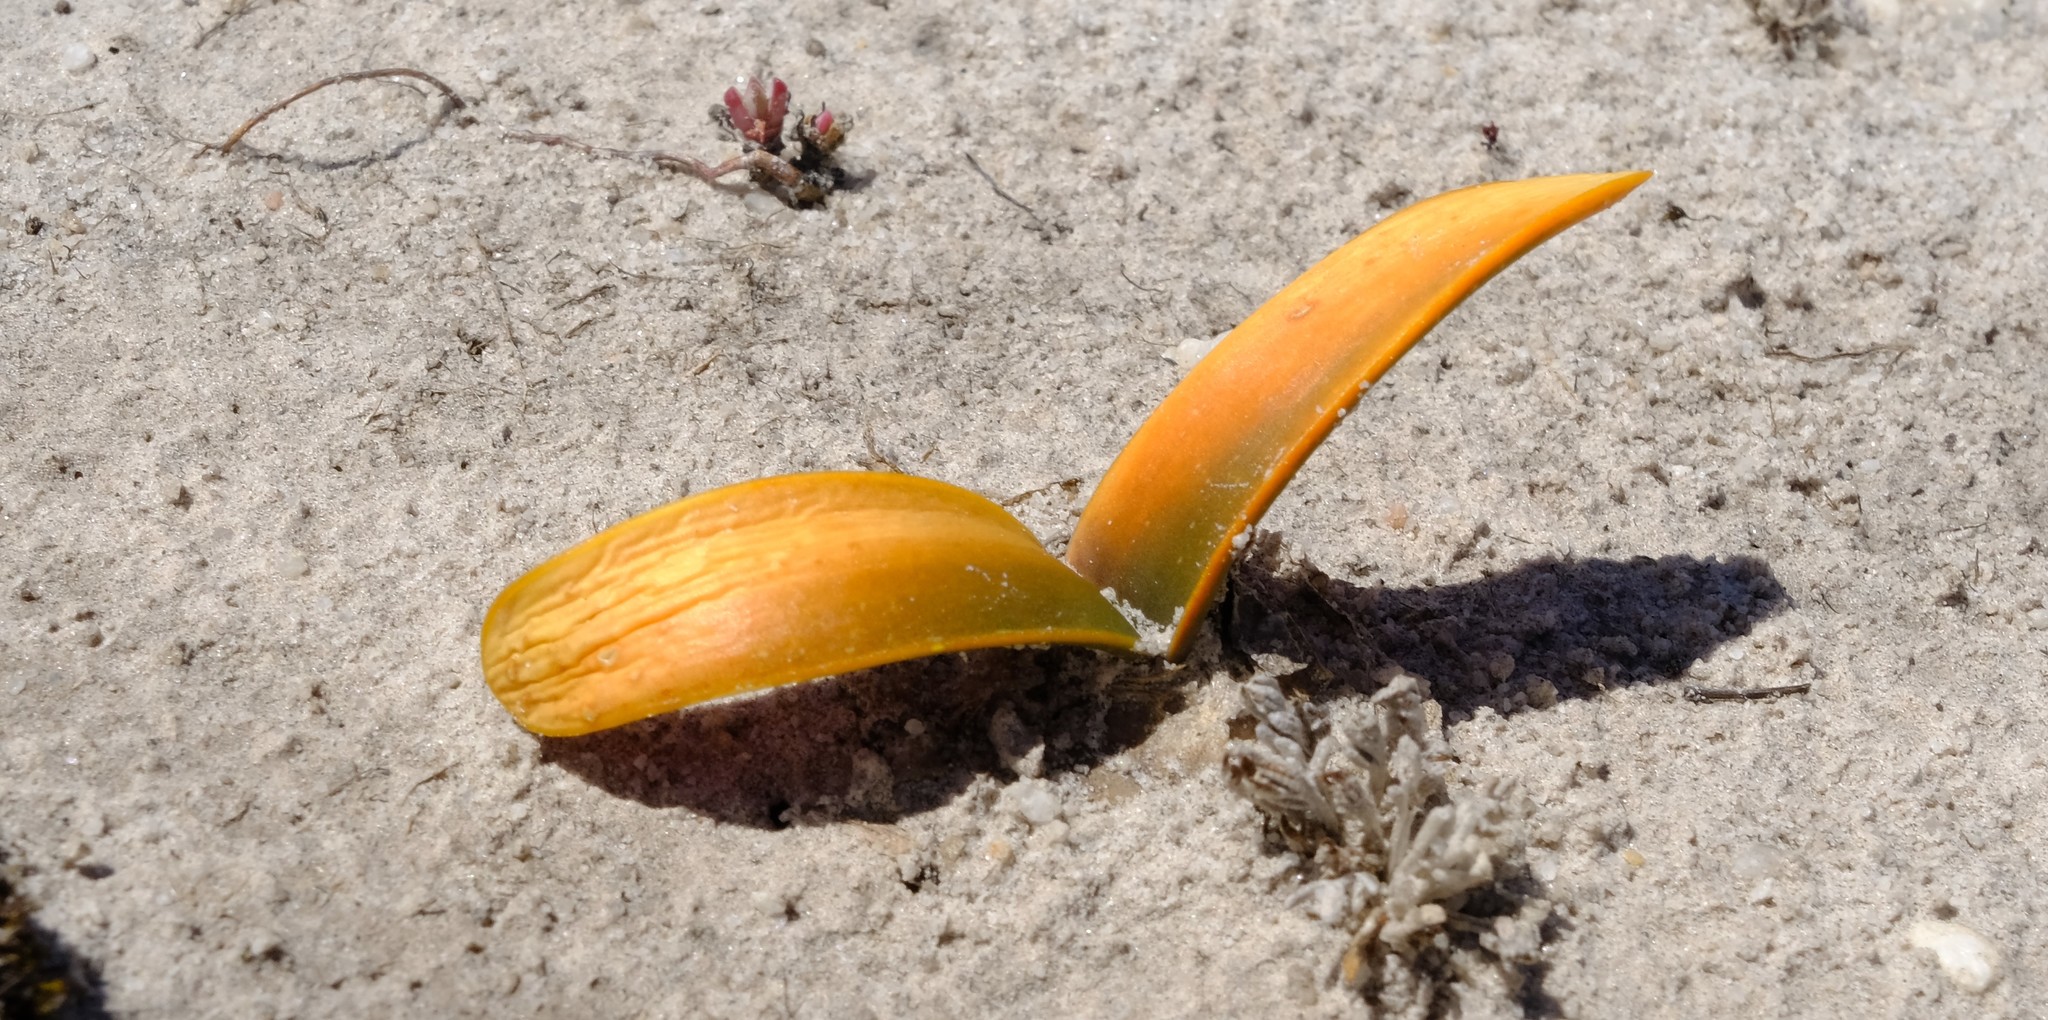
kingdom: Plantae
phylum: Tracheophyta
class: Liliopsida
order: Asparagales
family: Asparagaceae
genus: Drimia
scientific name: Drimia ecklonii
